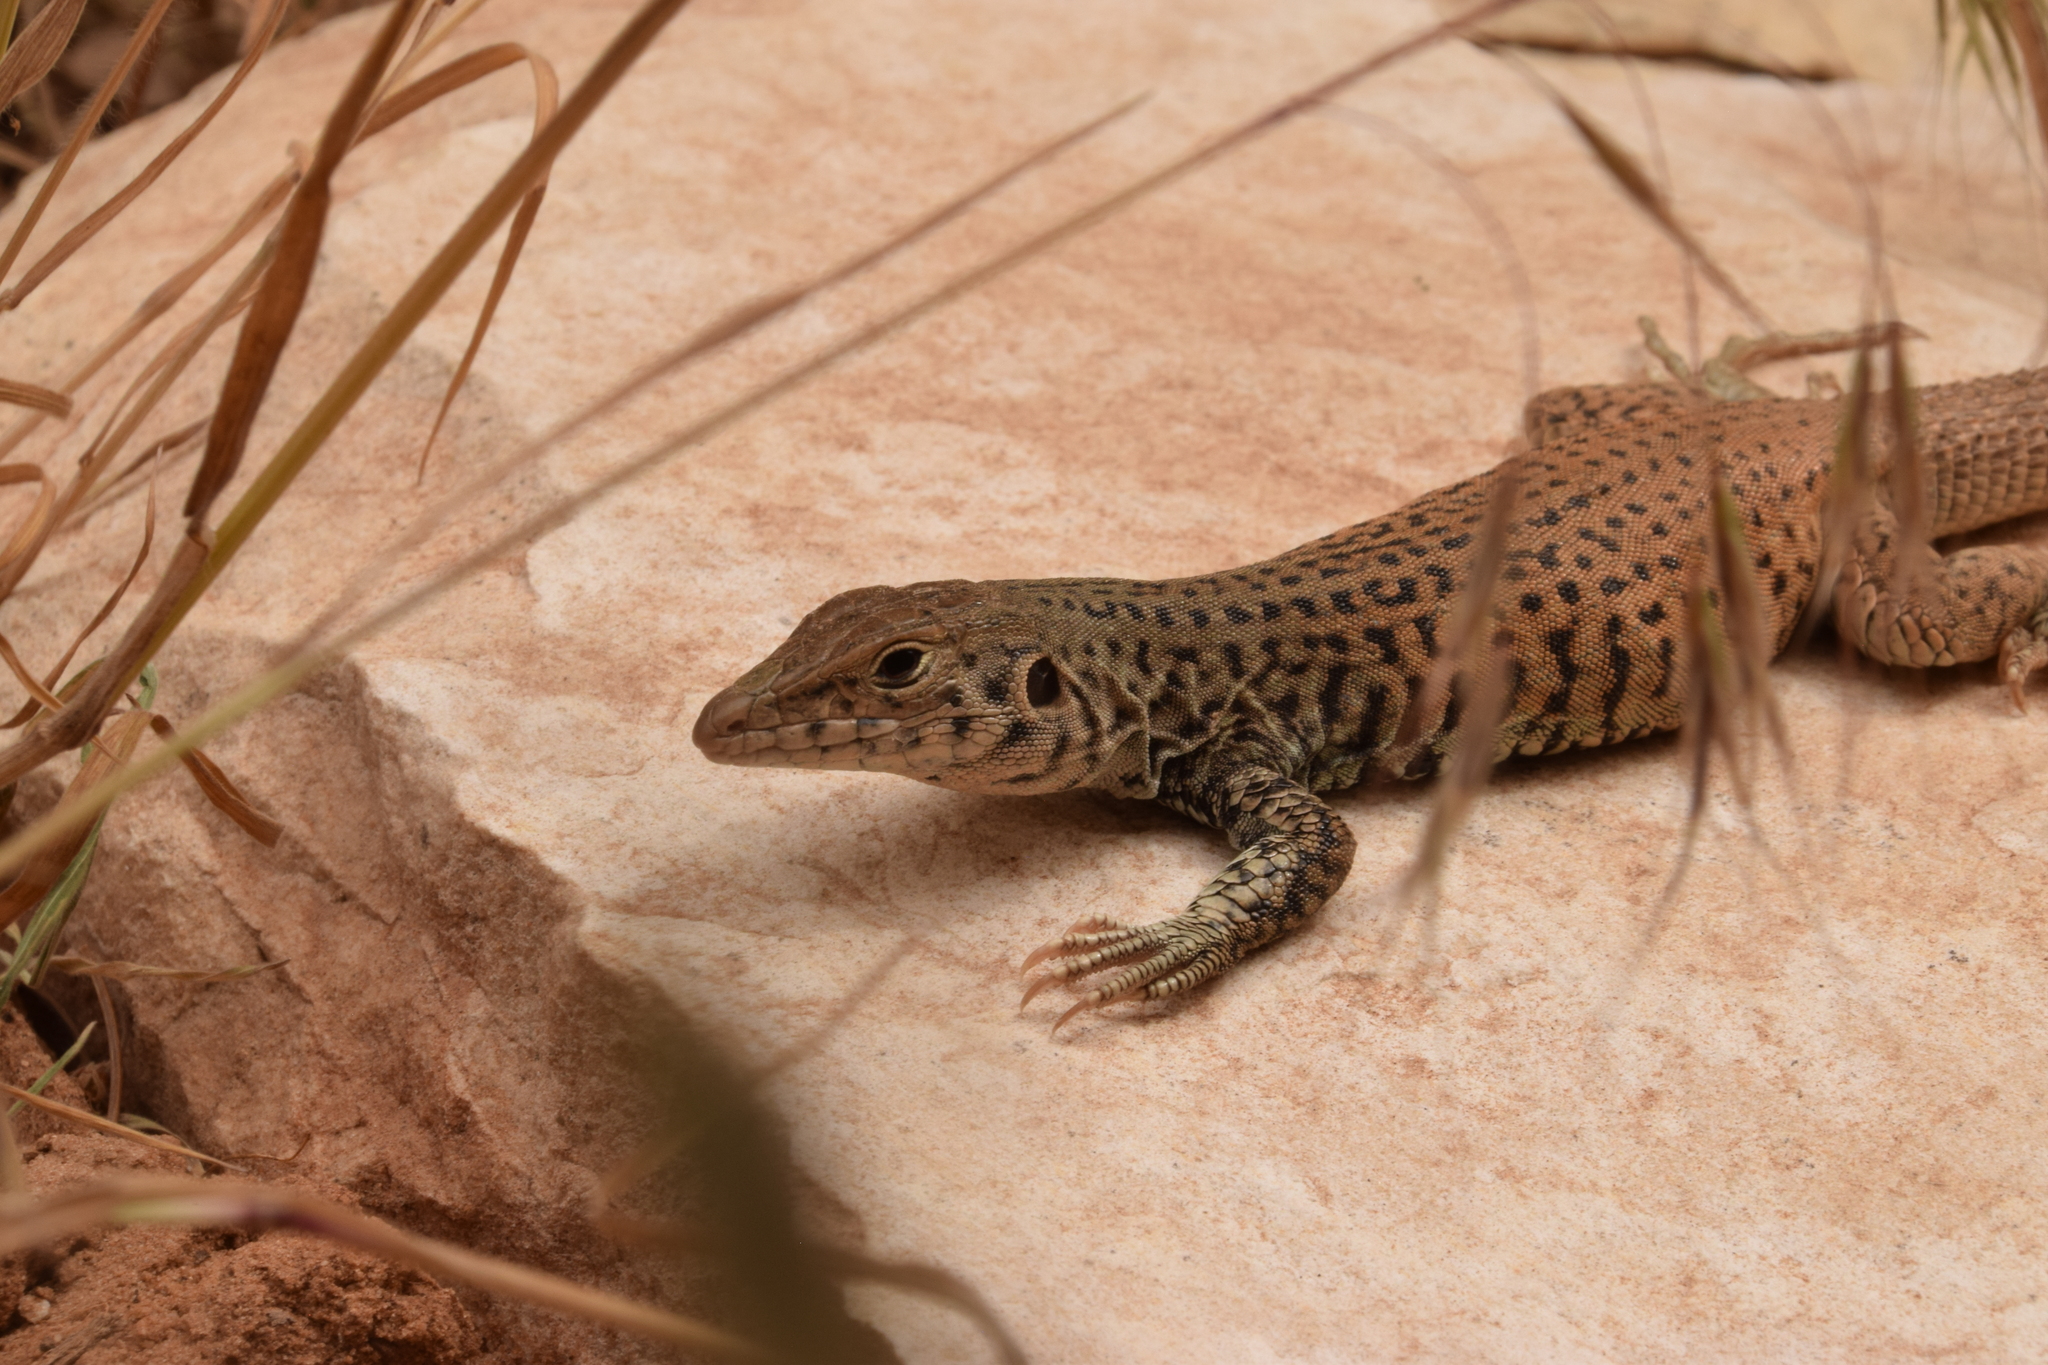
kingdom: Animalia
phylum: Chordata
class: Squamata
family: Teiidae
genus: Aspidoscelis
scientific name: Aspidoscelis tigris
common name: Tiger whiptail
